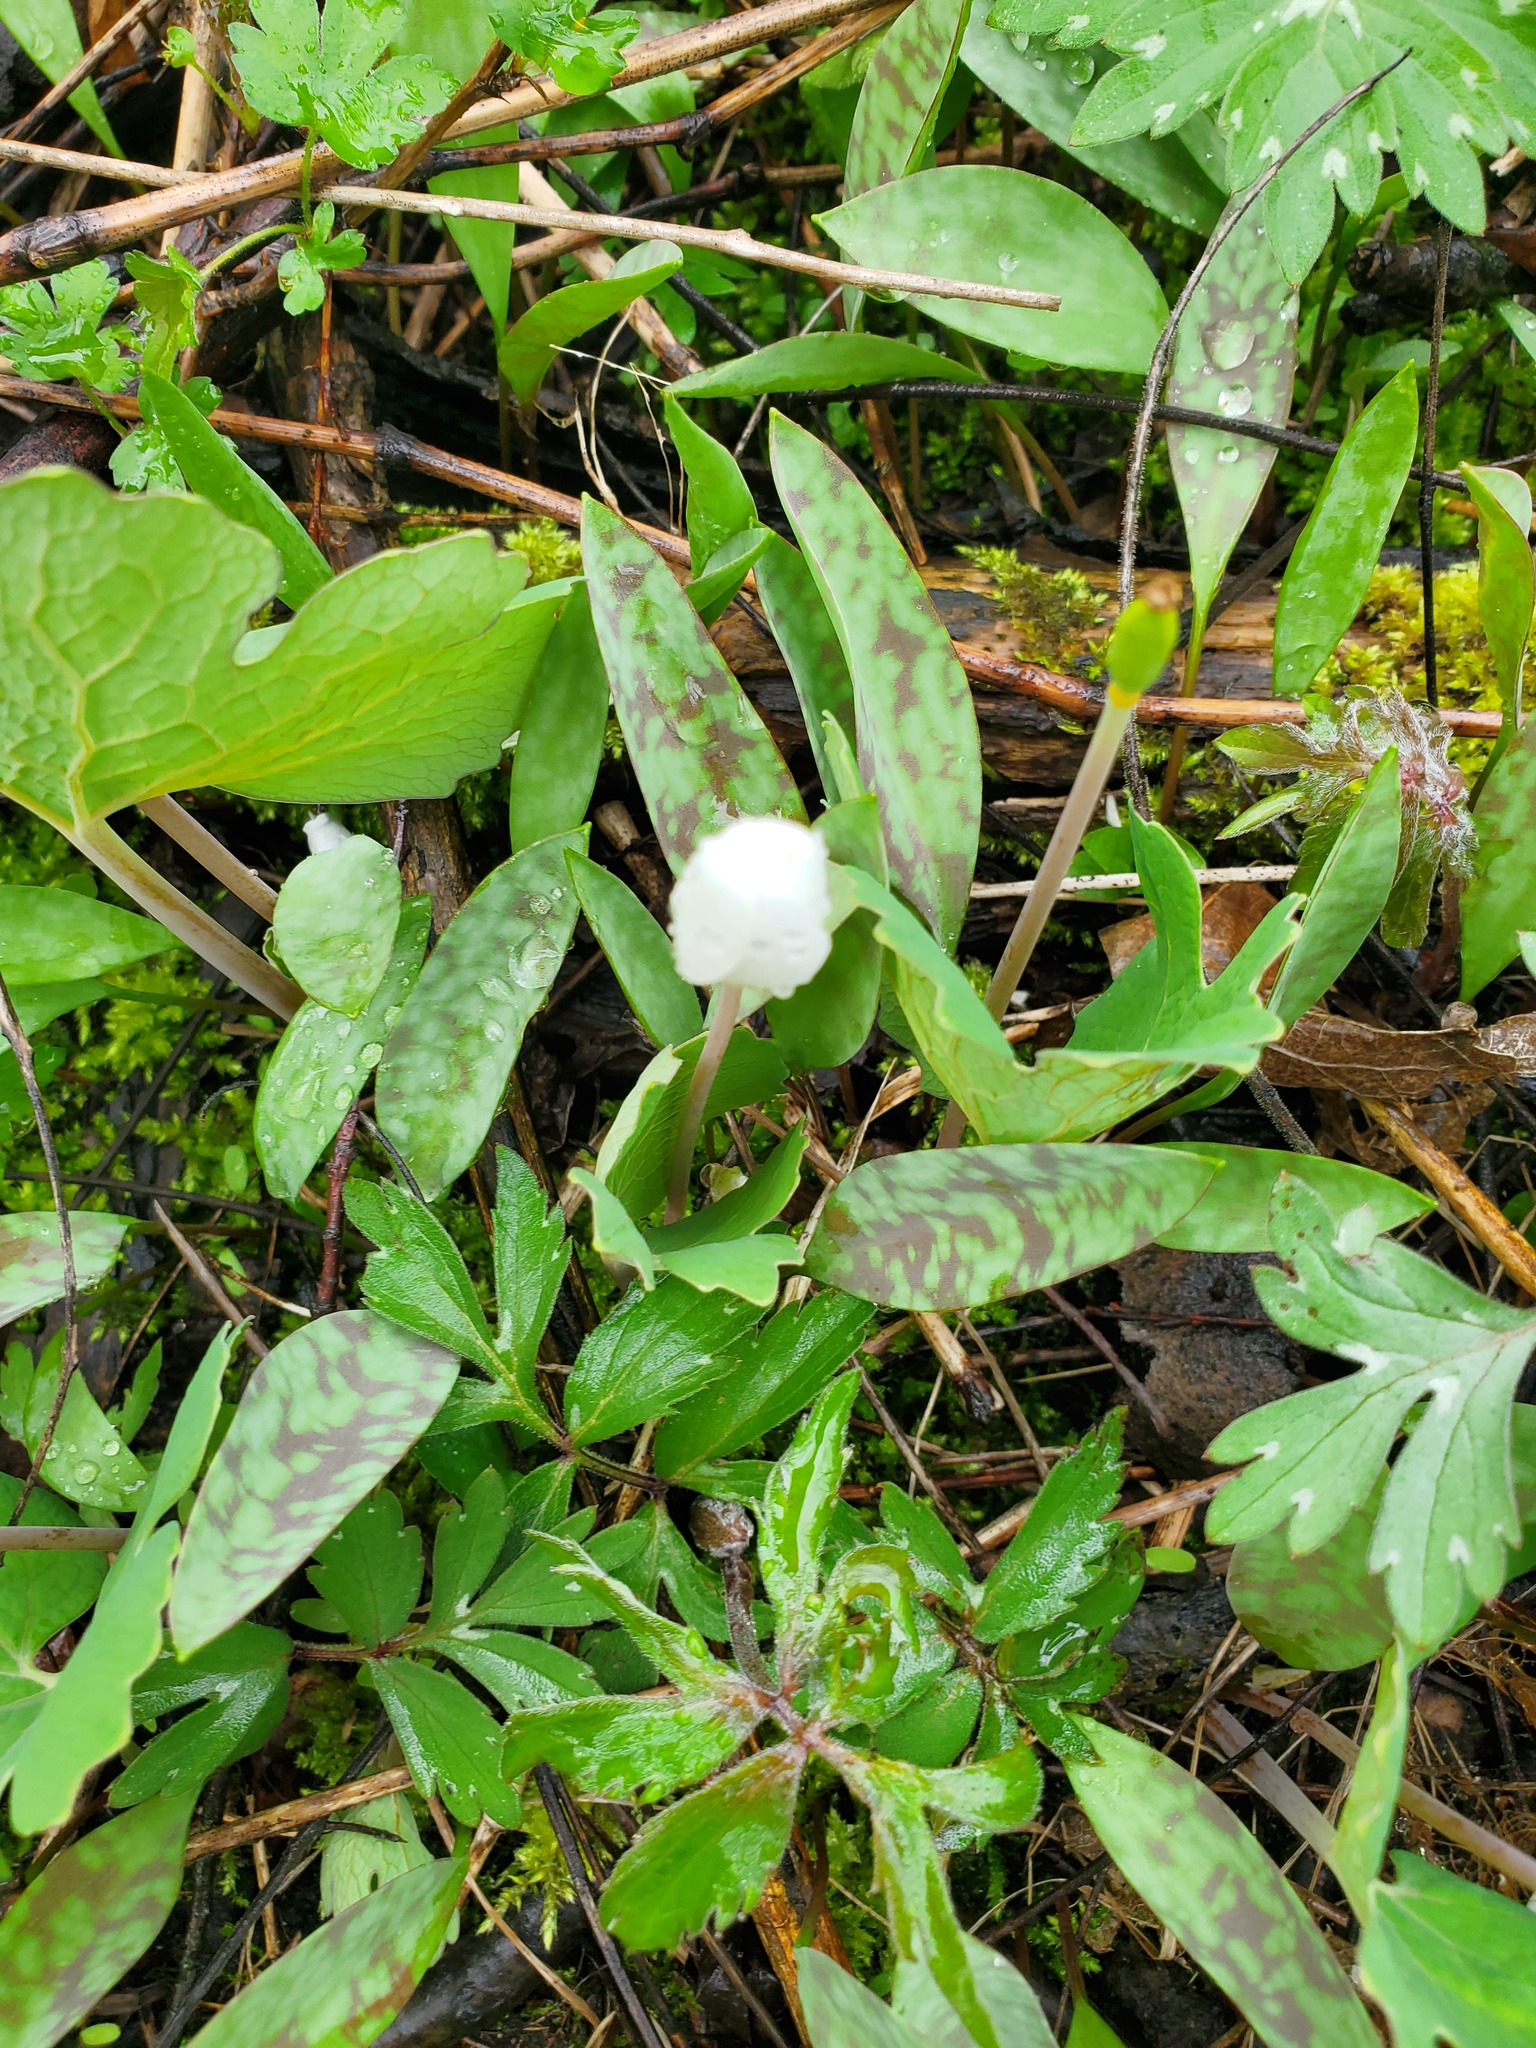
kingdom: Plantae
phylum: Tracheophyta
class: Magnoliopsida
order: Ranunculales
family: Papaveraceae
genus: Sanguinaria
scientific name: Sanguinaria canadensis
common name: Bloodroot
